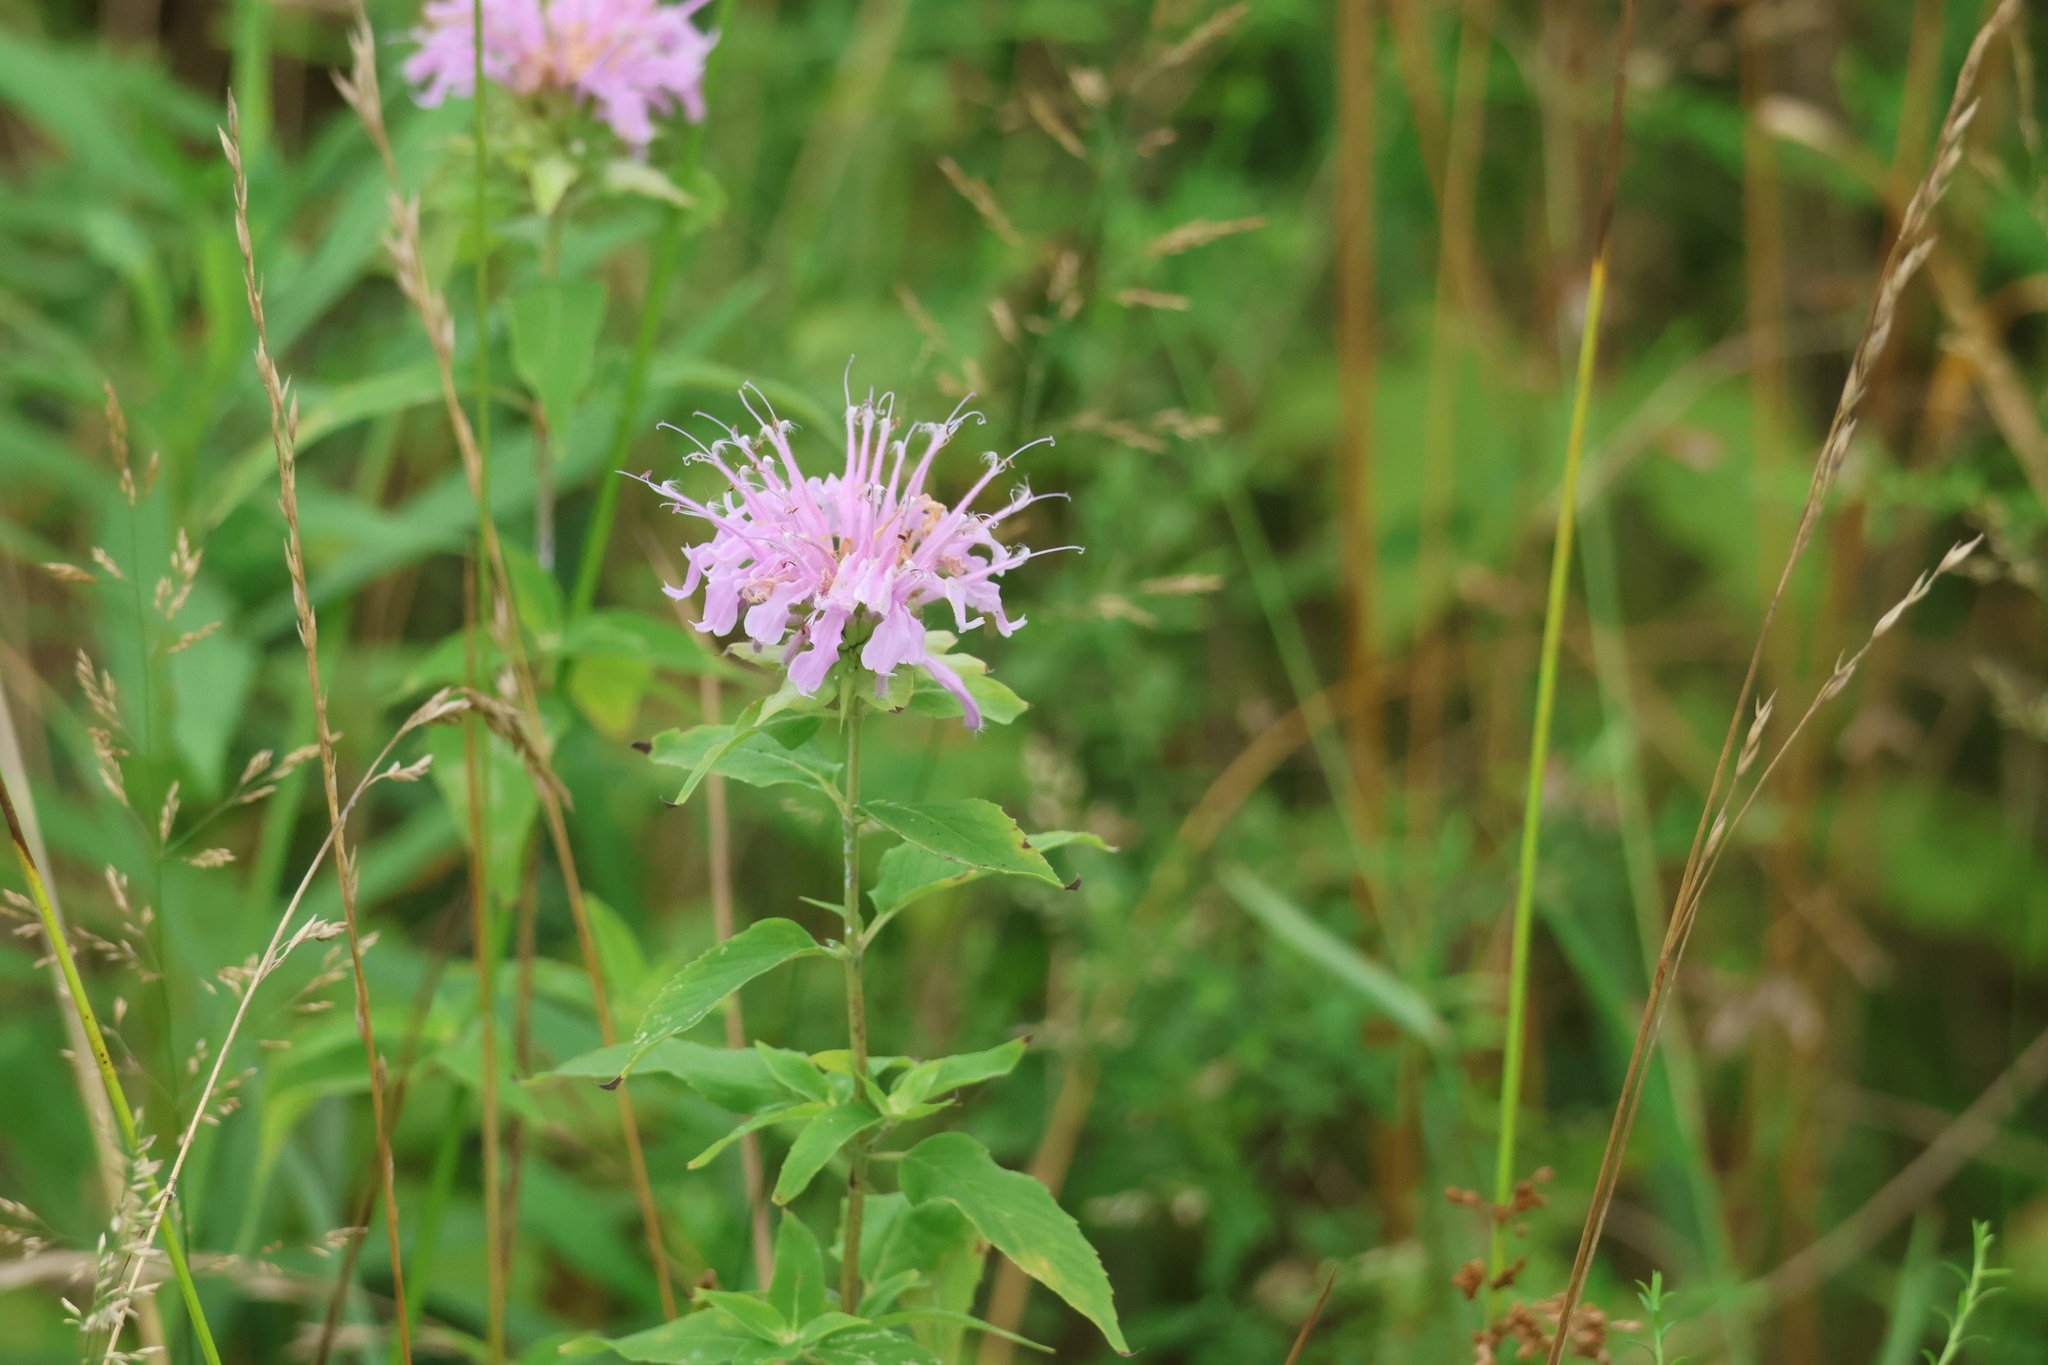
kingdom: Plantae
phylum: Tracheophyta
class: Magnoliopsida
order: Lamiales
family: Lamiaceae
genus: Monarda
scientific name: Monarda fistulosa
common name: Purple beebalm
